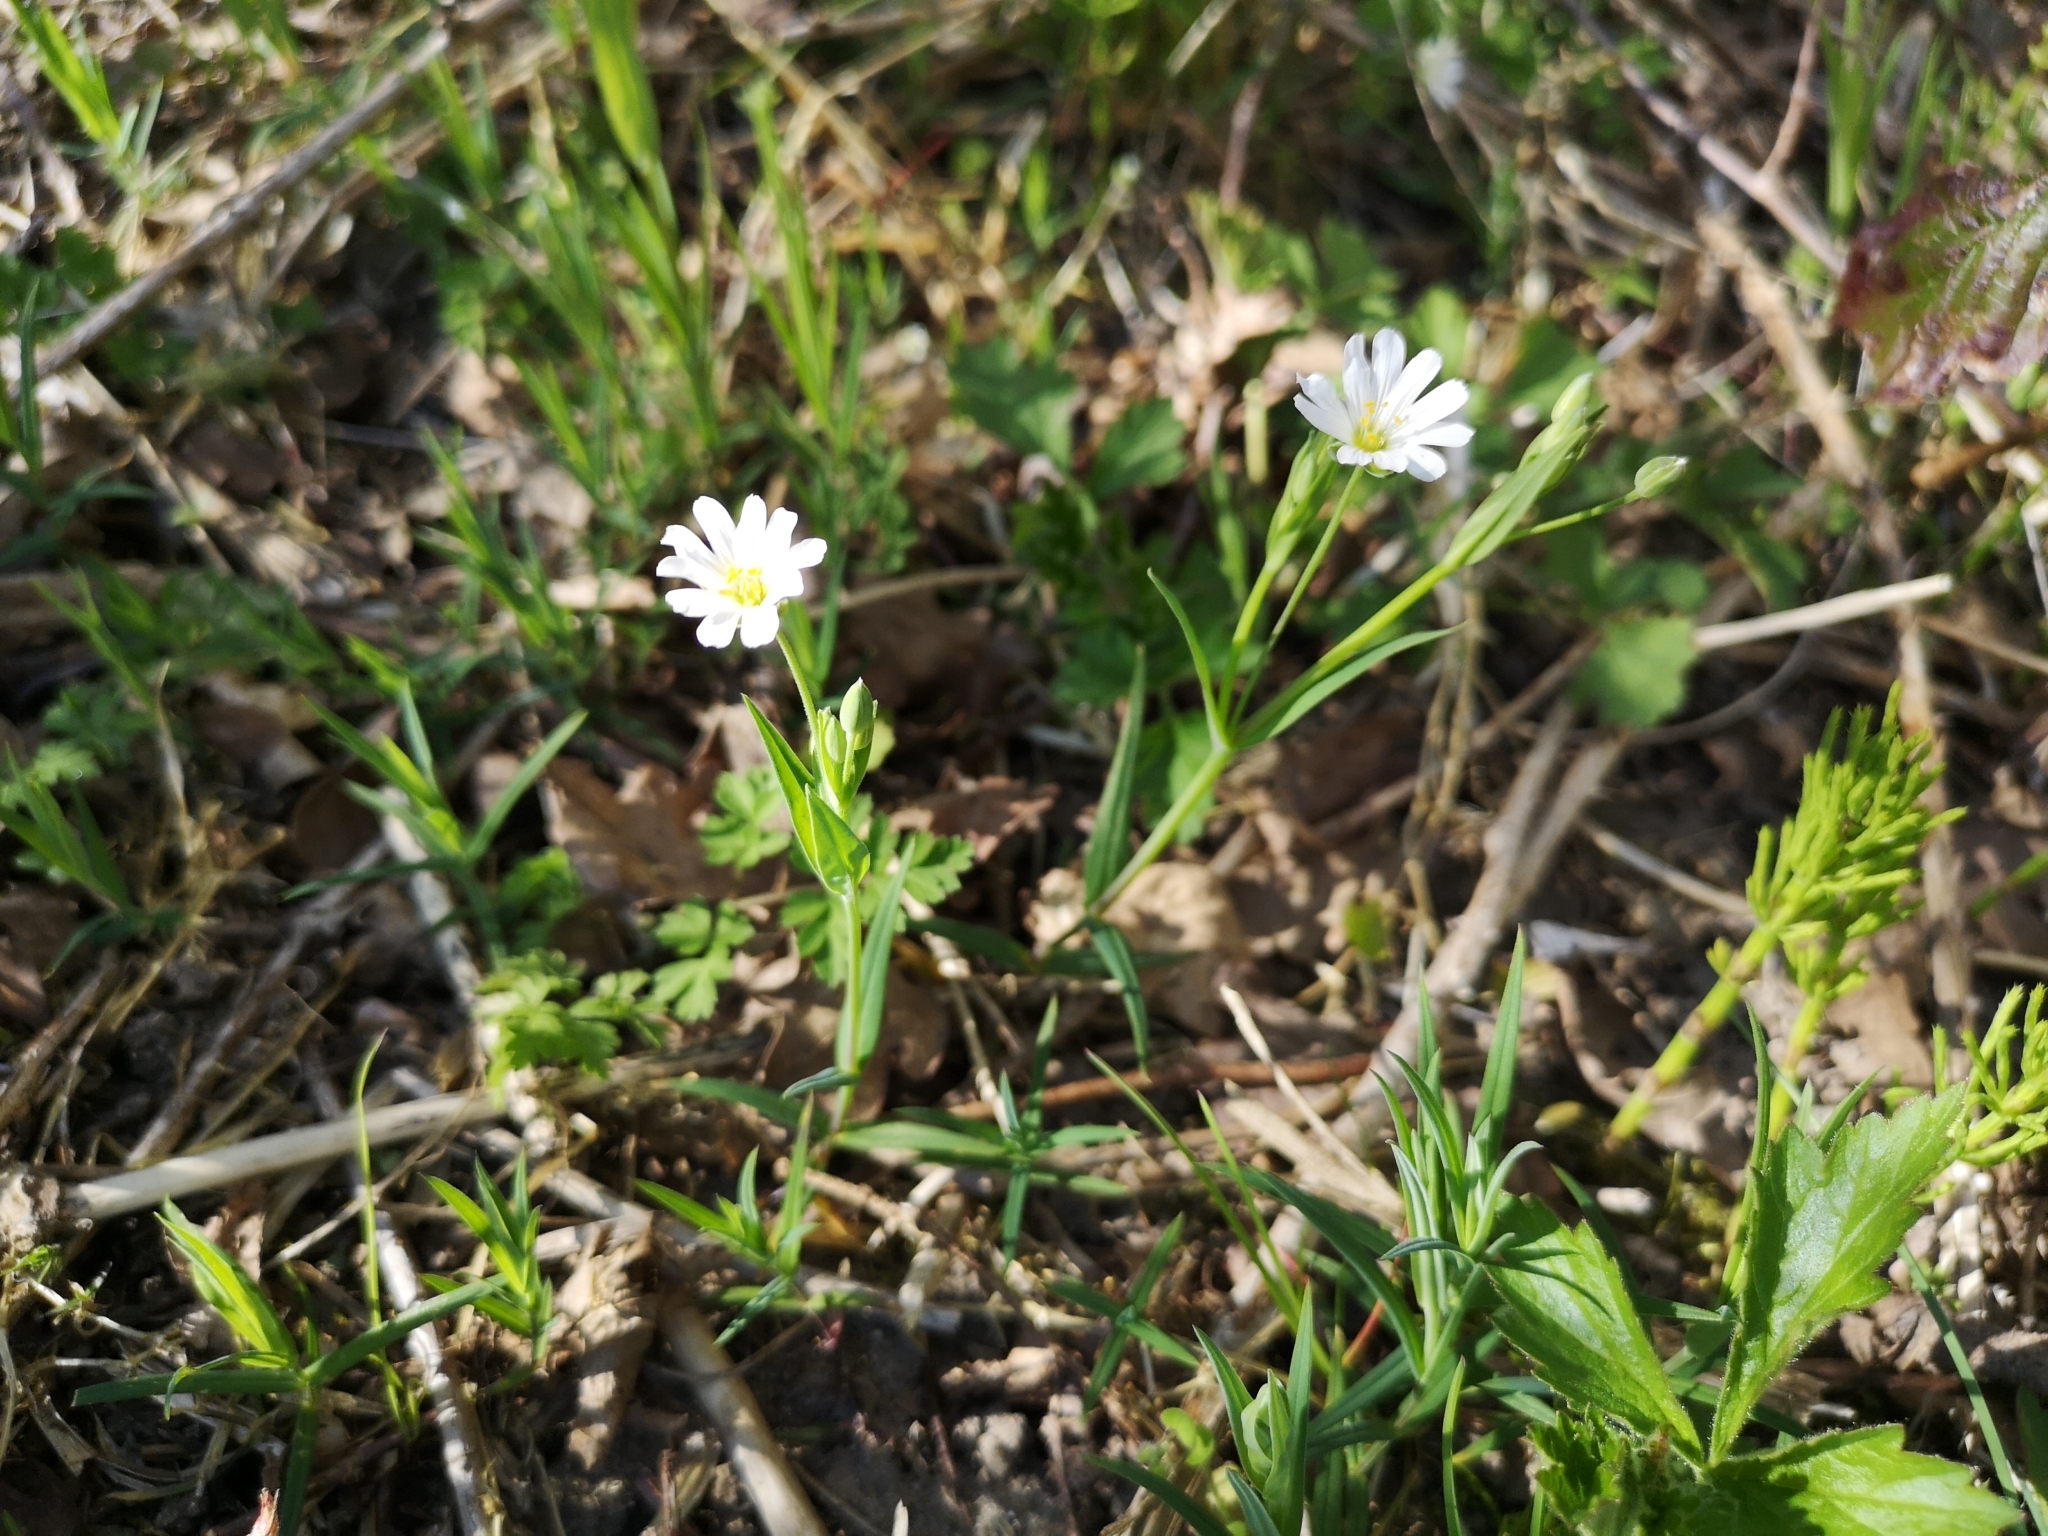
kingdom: Plantae
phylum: Tracheophyta
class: Magnoliopsida
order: Caryophyllales
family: Caryophyllaceae
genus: Rabelera
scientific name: Rabelera holostea
